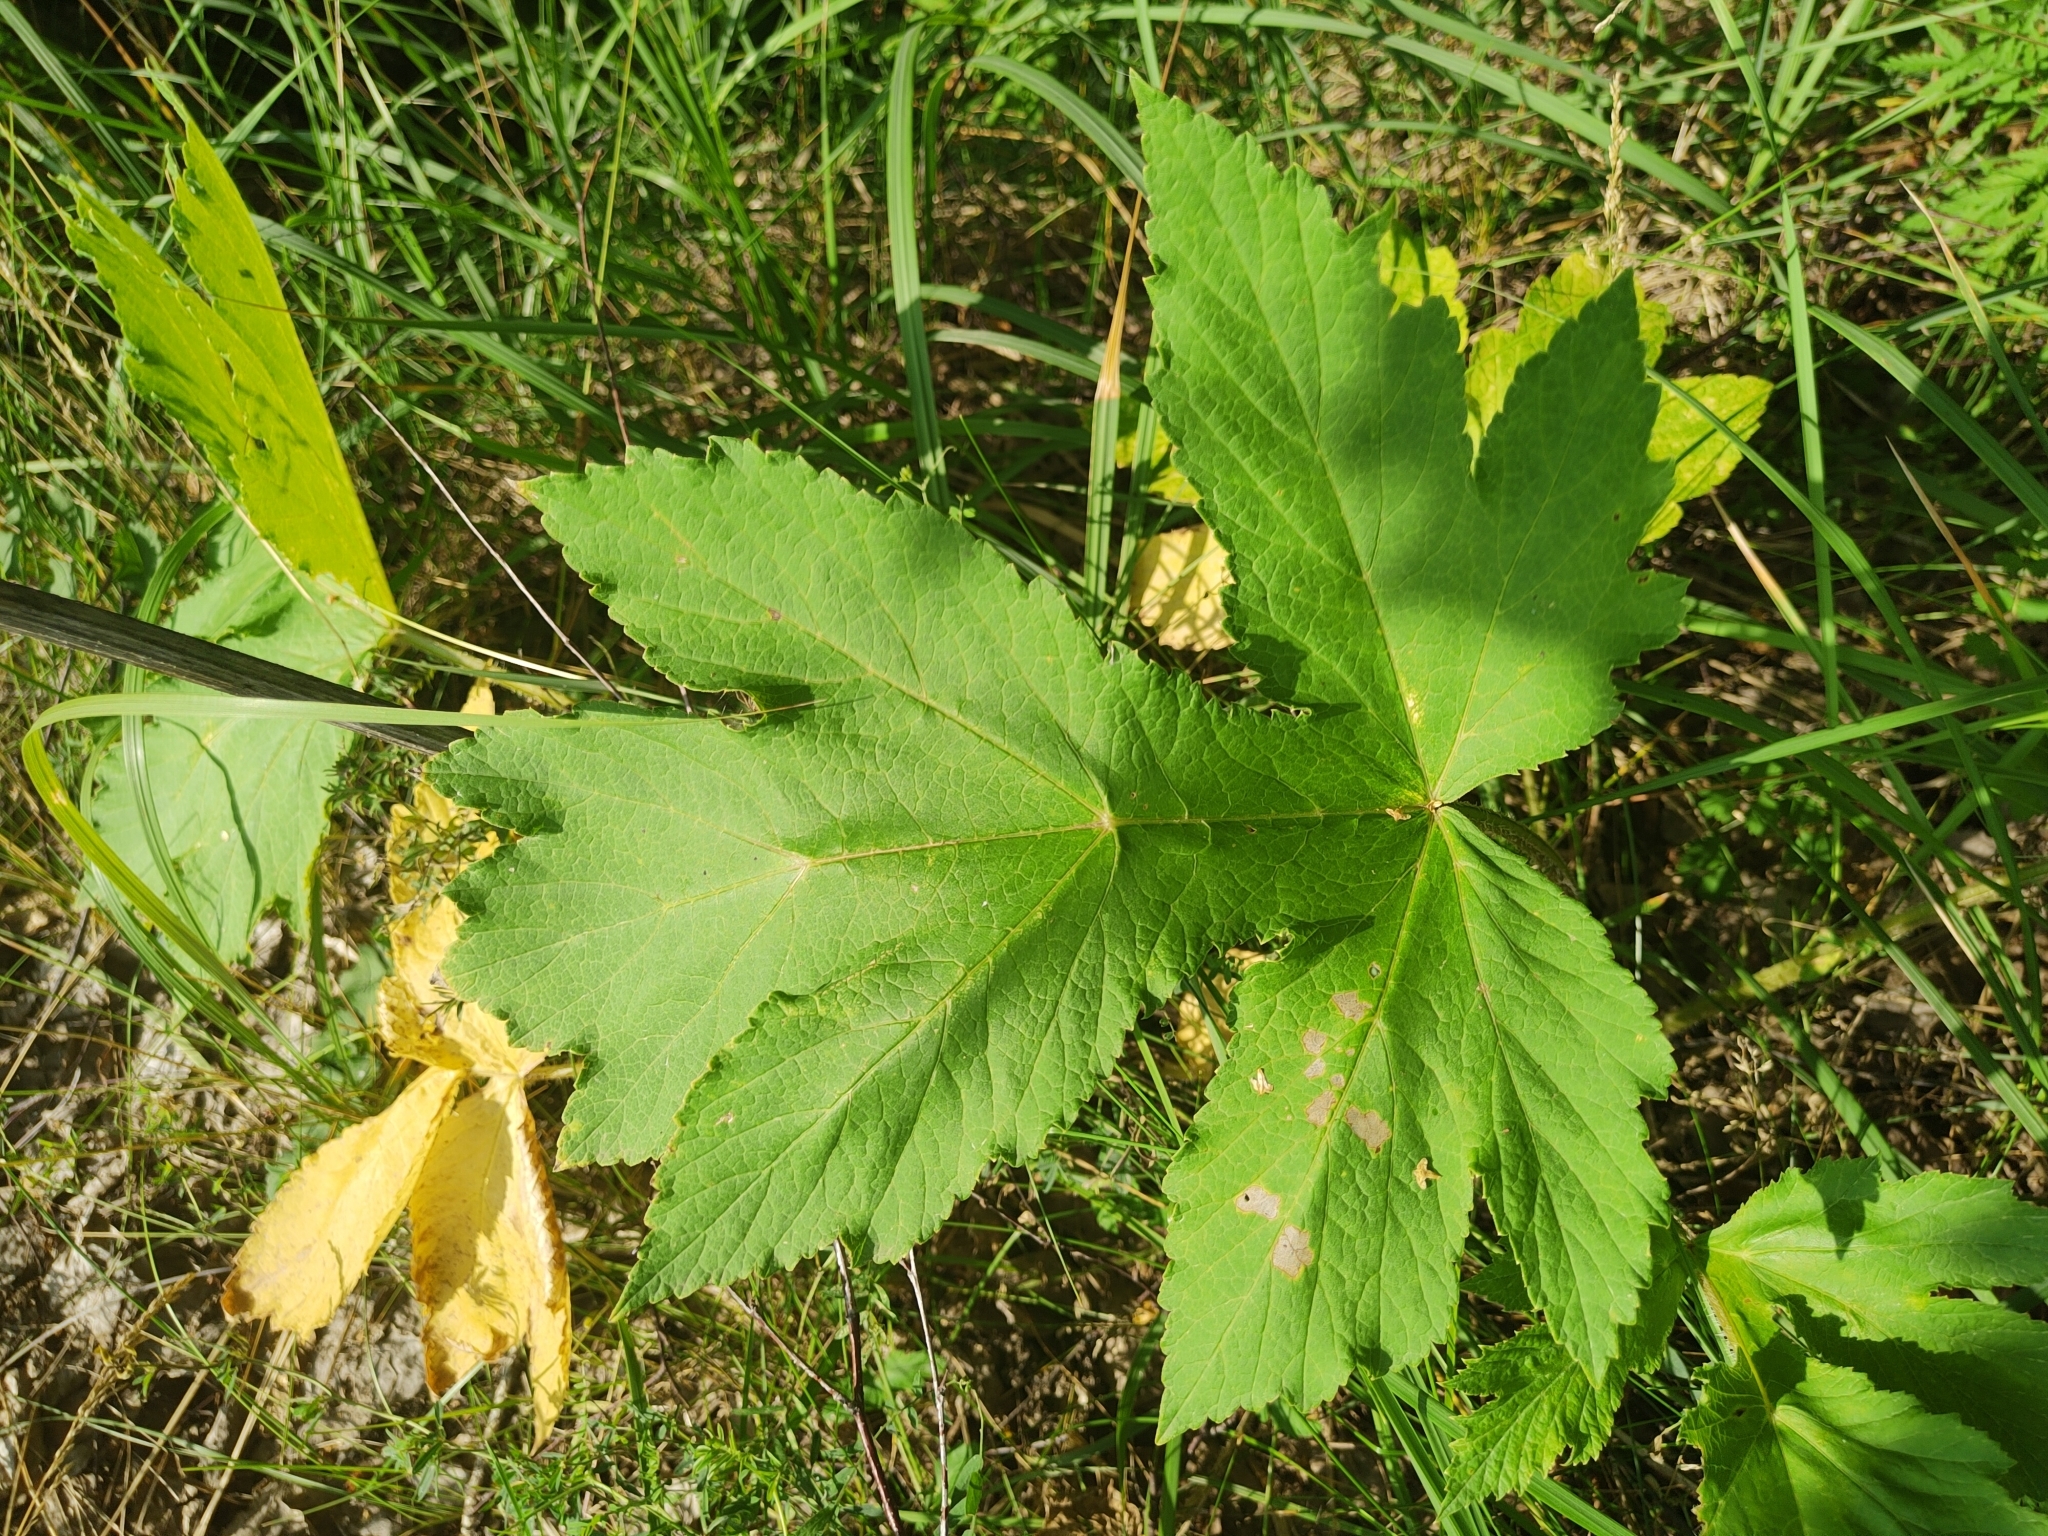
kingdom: Plantae
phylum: Tracheophyta
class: Magnoliopsida
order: Apiales
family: Apiaceae
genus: Heracleum
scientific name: Heracleum sphondylium
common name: Hogweed
